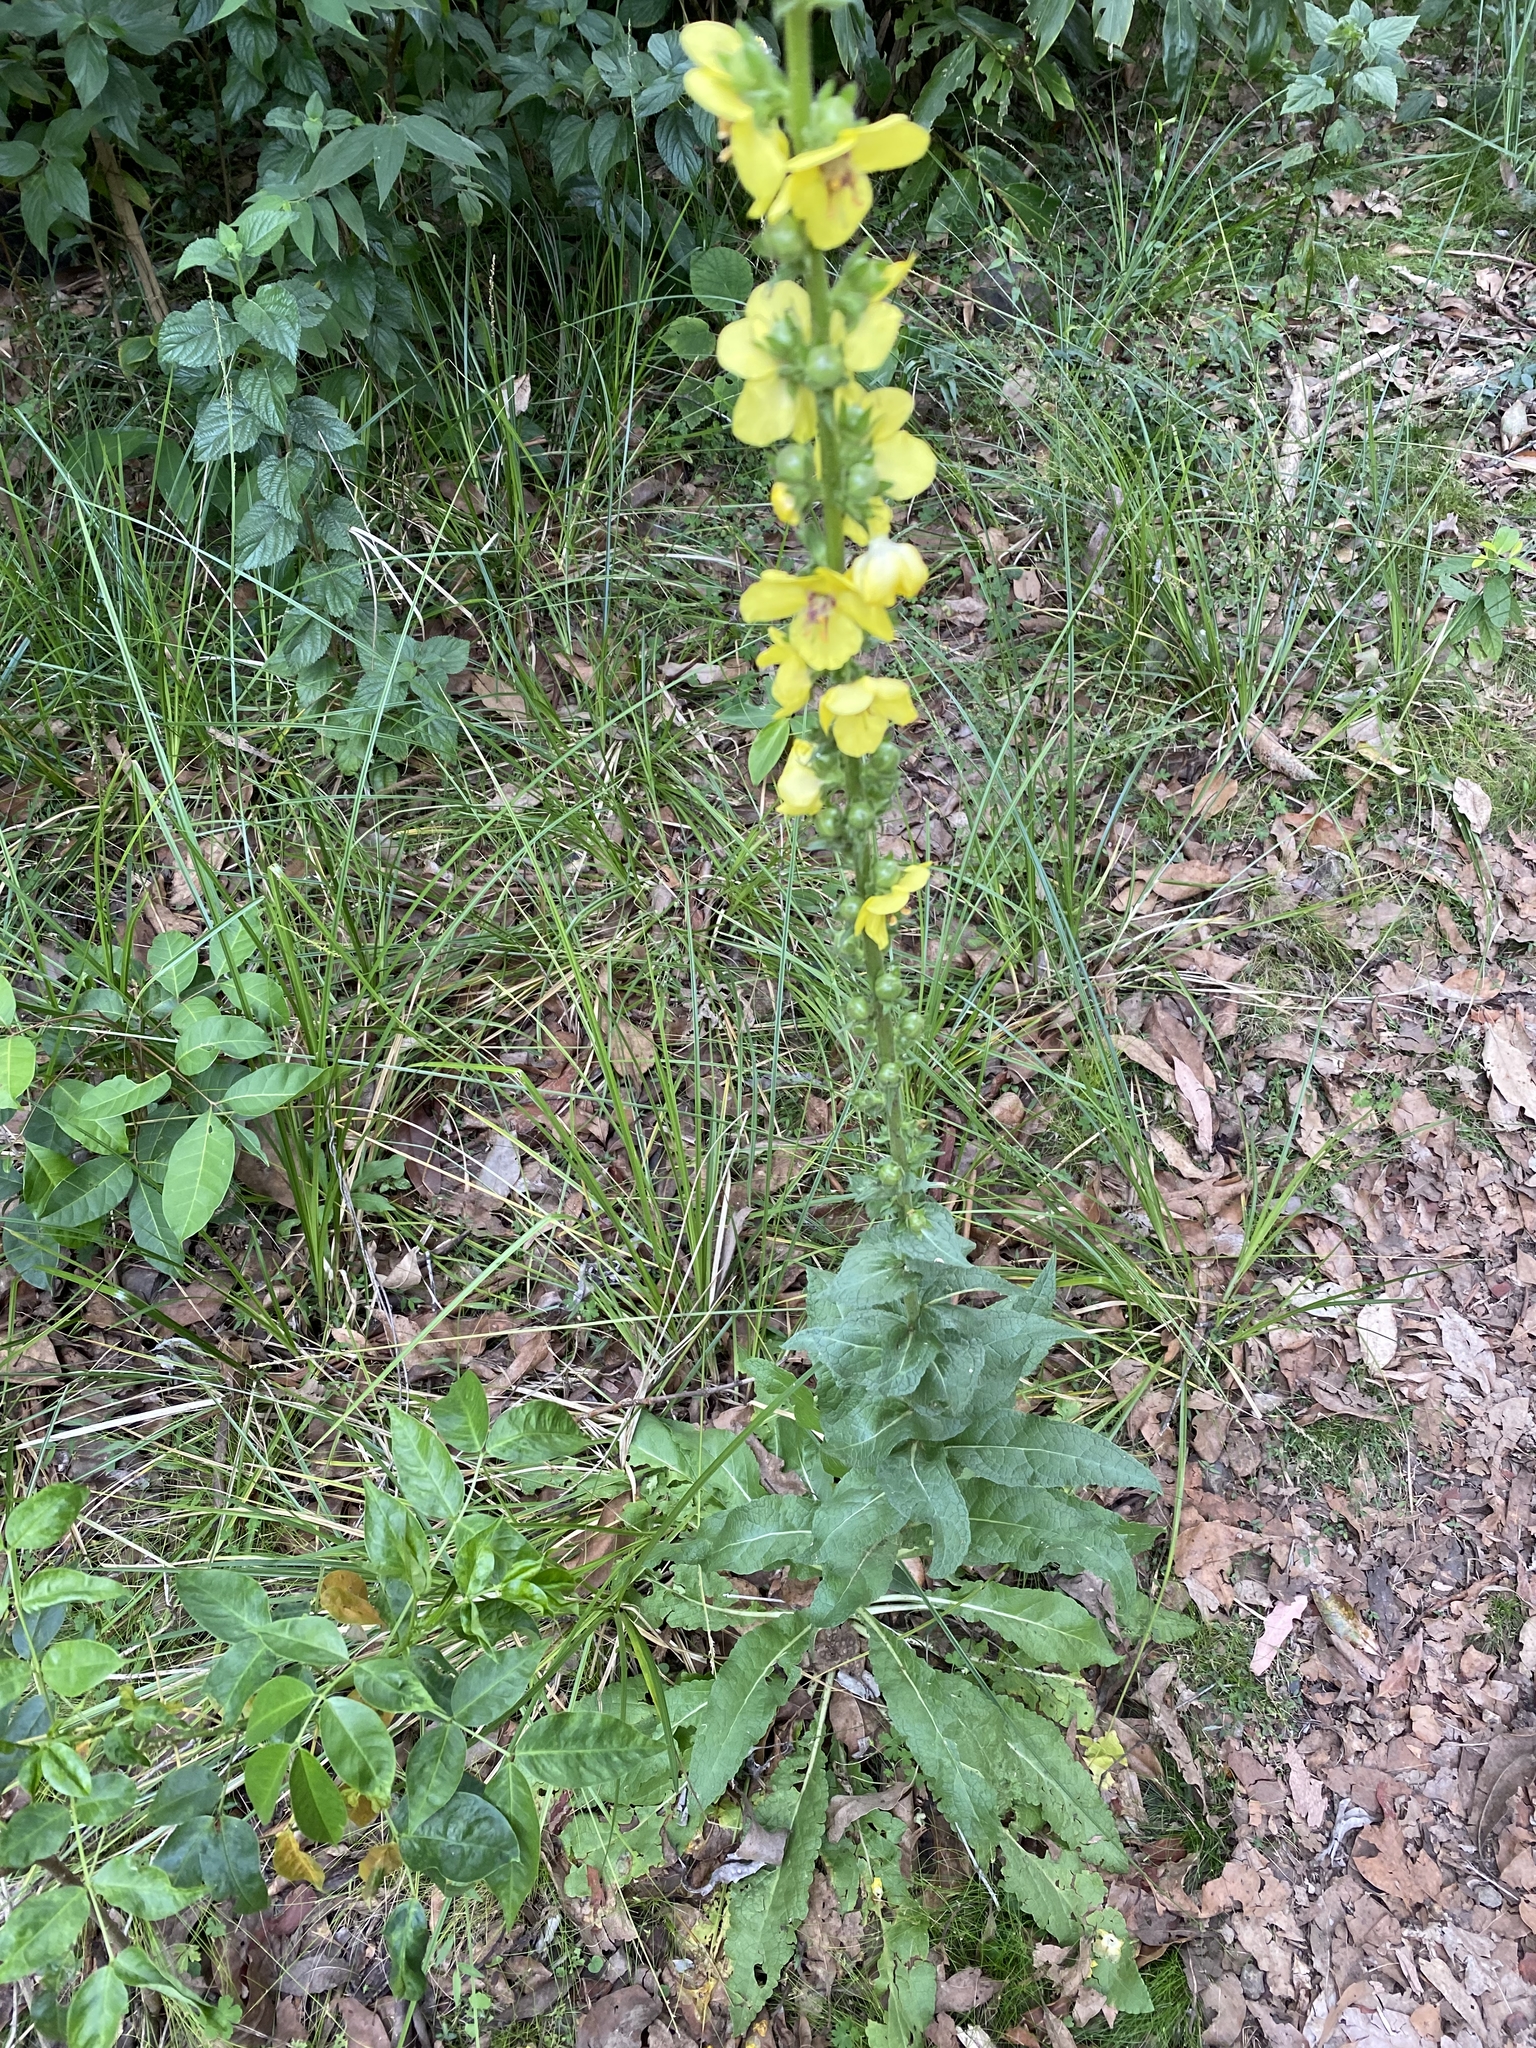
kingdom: Plantae
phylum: Tracheophyta
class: Magnoliopsida
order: Lamiales
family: Scrophulariaceae
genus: Verbascum
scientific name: Verbascum virgatum
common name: Twiggy mullein
